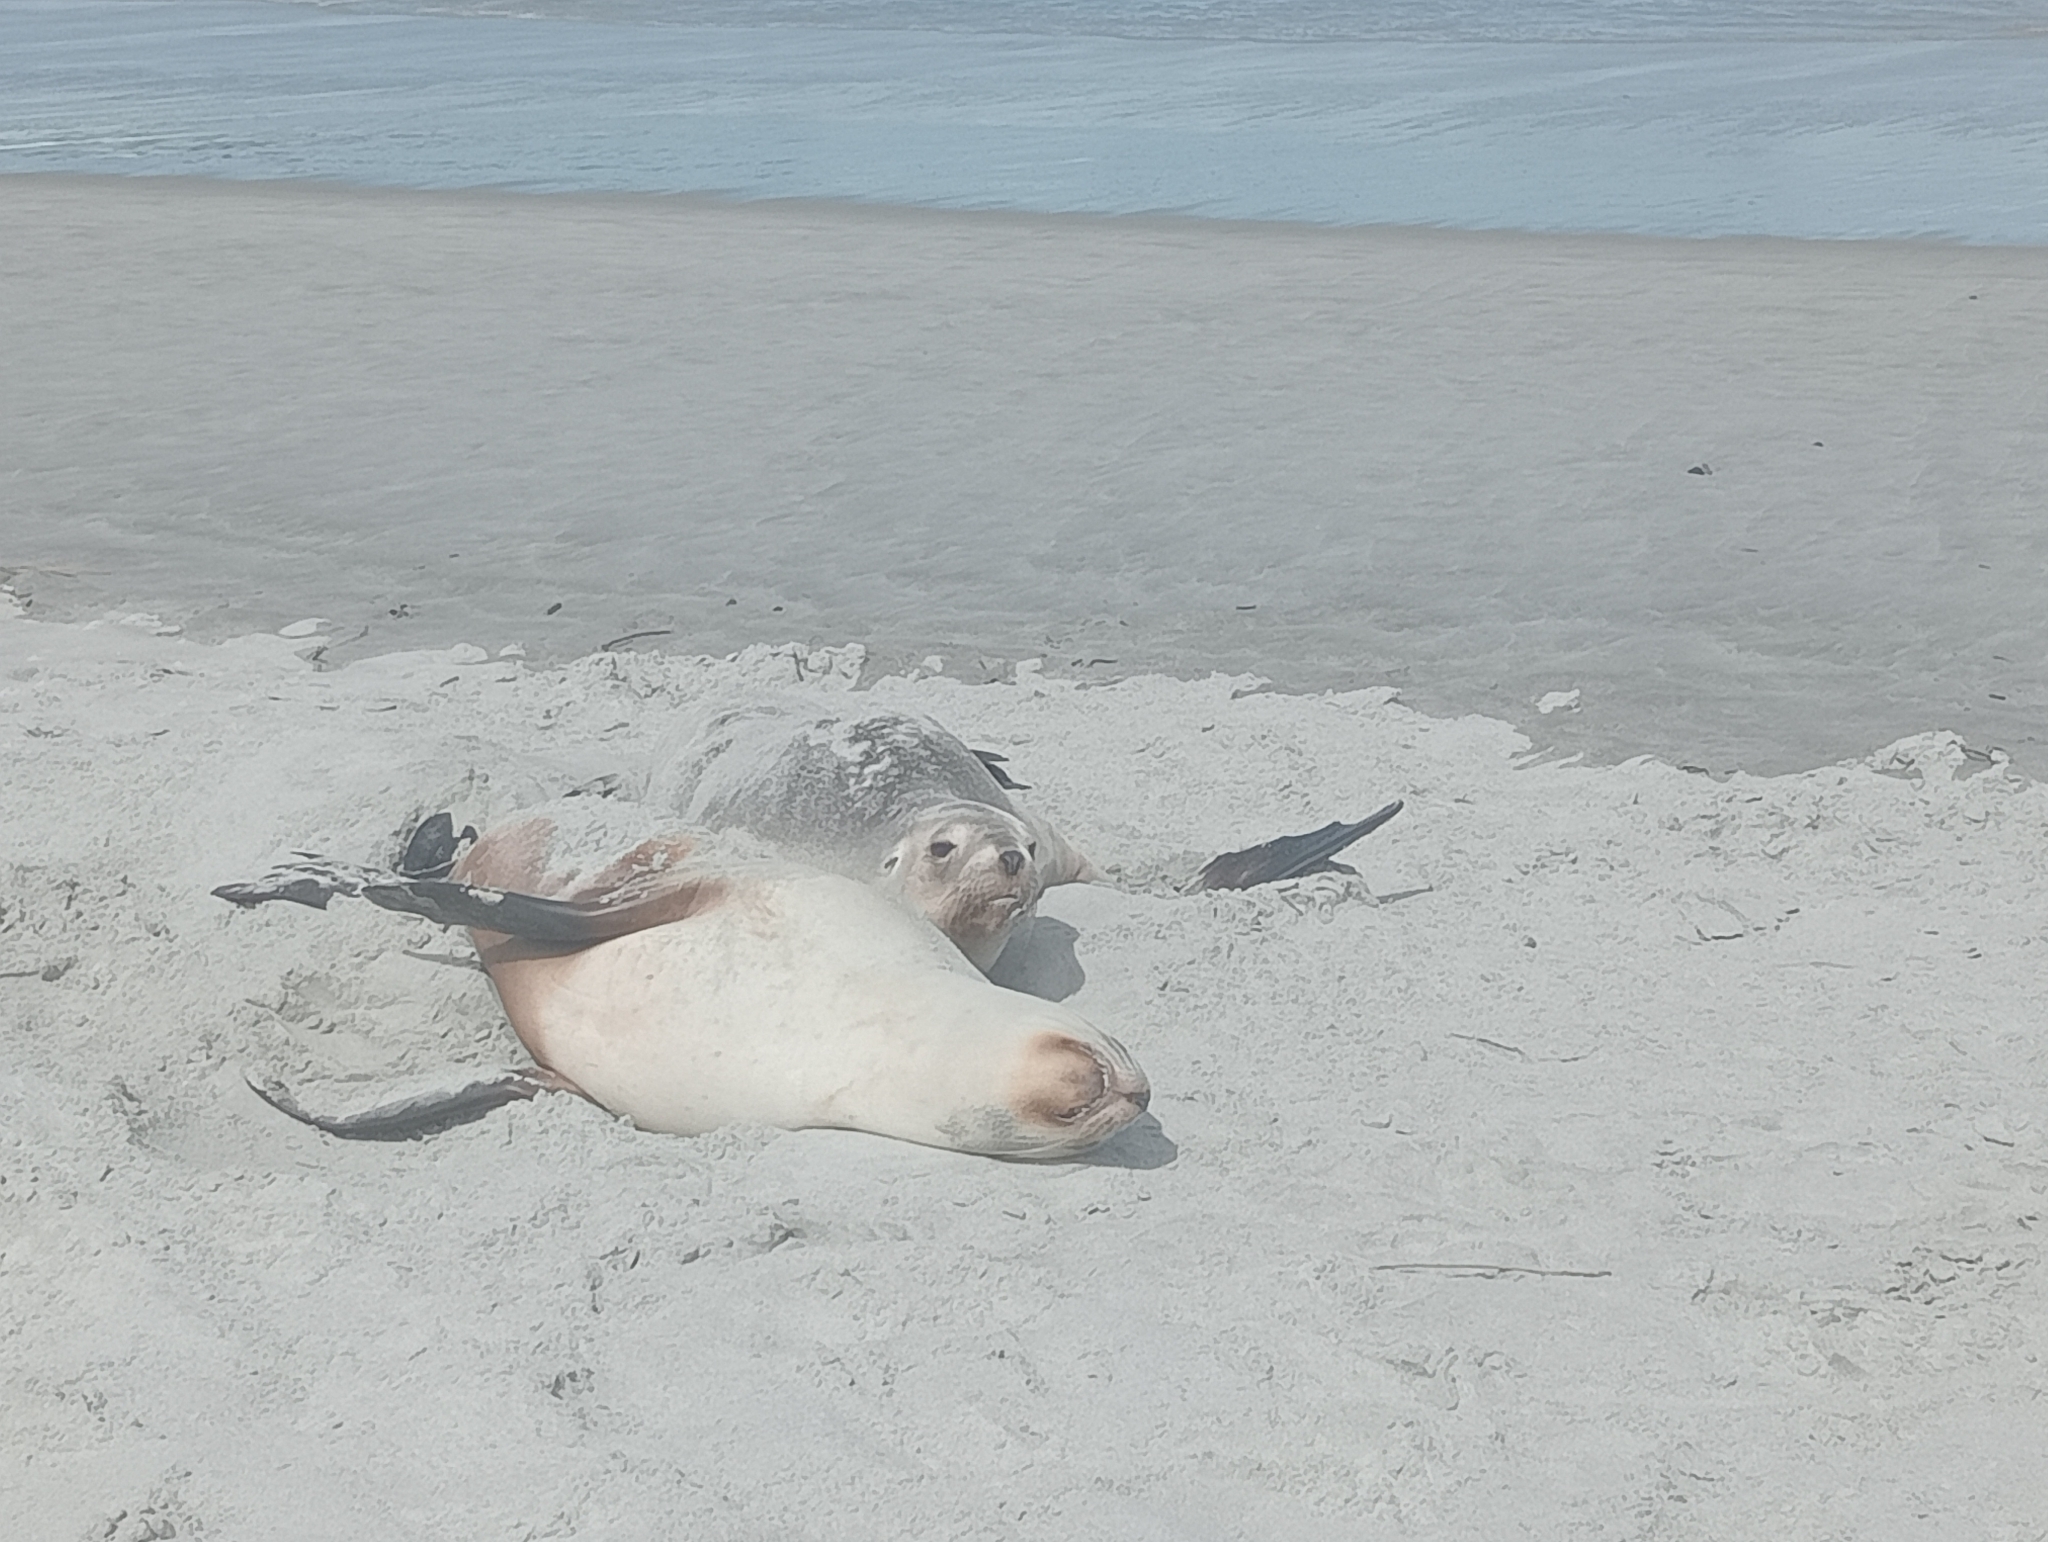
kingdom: Animalia
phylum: Chordata
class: Mammalia
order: Carnivora
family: Otariidae
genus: Phocarctos
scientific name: Phocarctos hookeri
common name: New zealand sea lion
